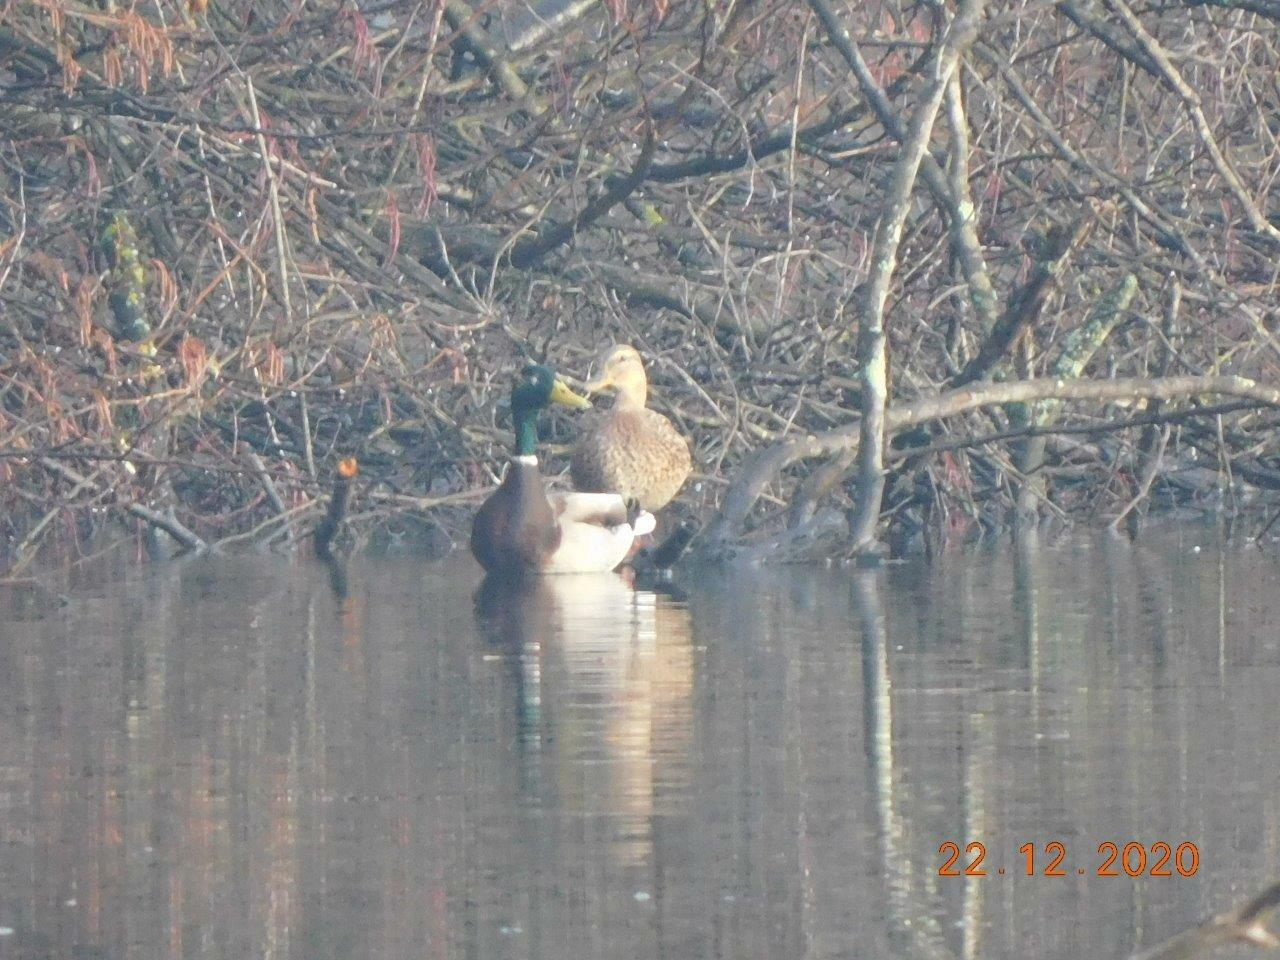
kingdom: Animalia
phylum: Chordata
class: Aves
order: Anseriformes
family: Anatidae
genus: Anas
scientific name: Anas platyrhynchos
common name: Mallard
